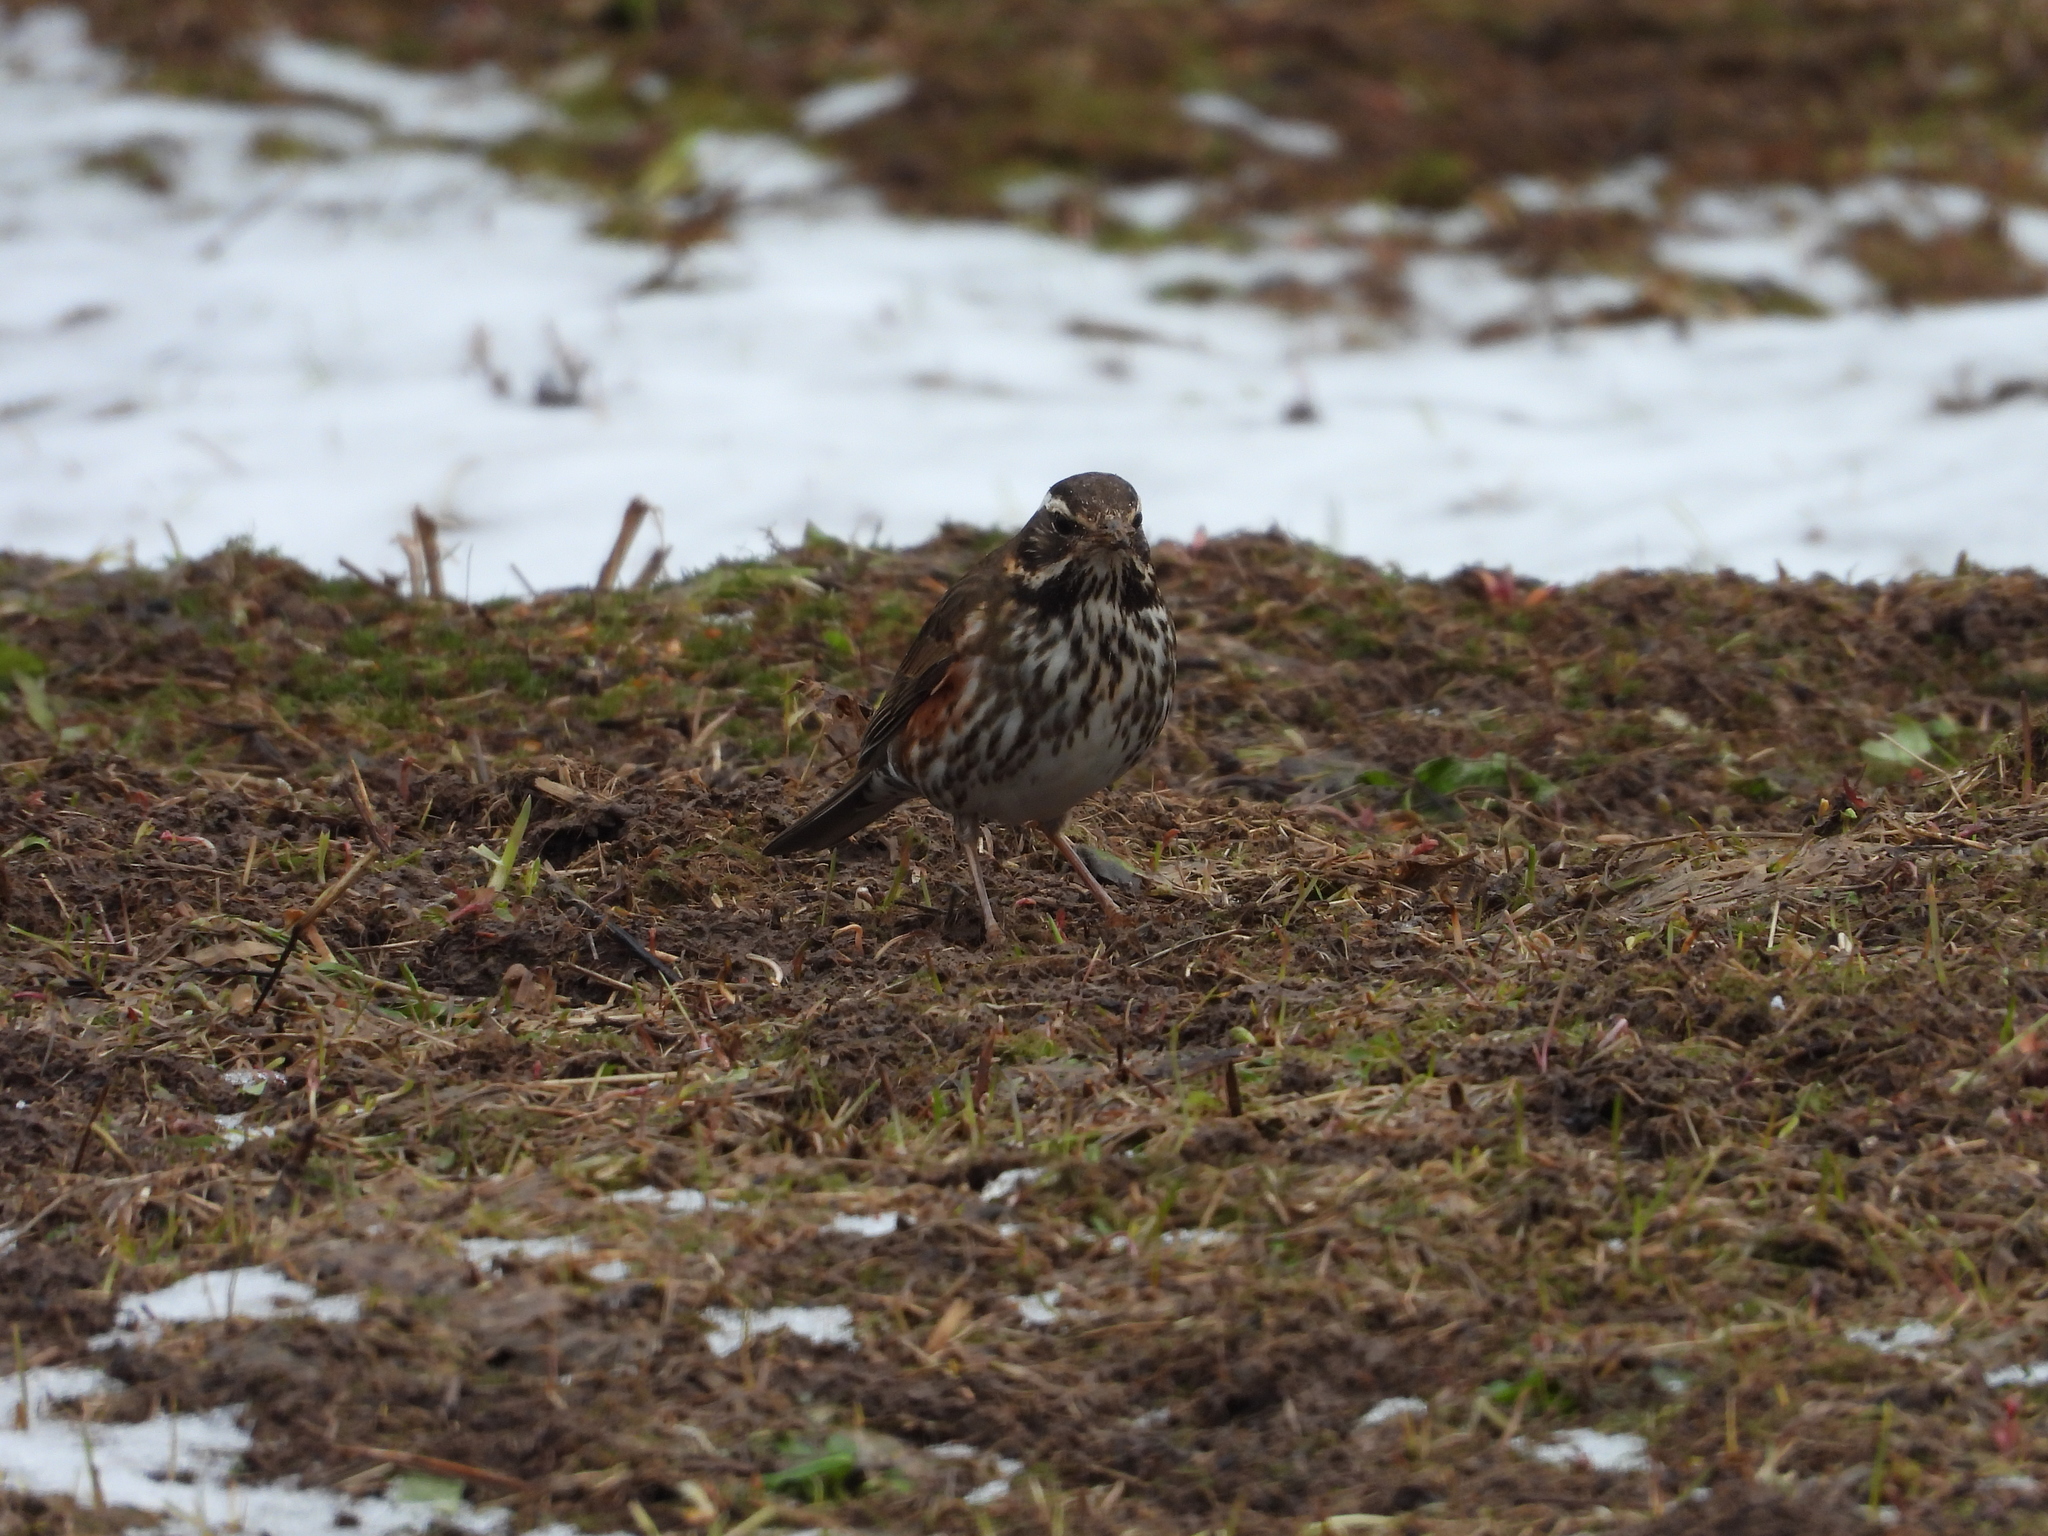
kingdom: Animalia
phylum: Chordata
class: Aves
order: Passeriformes
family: Turdidae
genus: Turdus
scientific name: Turdus iliacus
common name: Redwing
